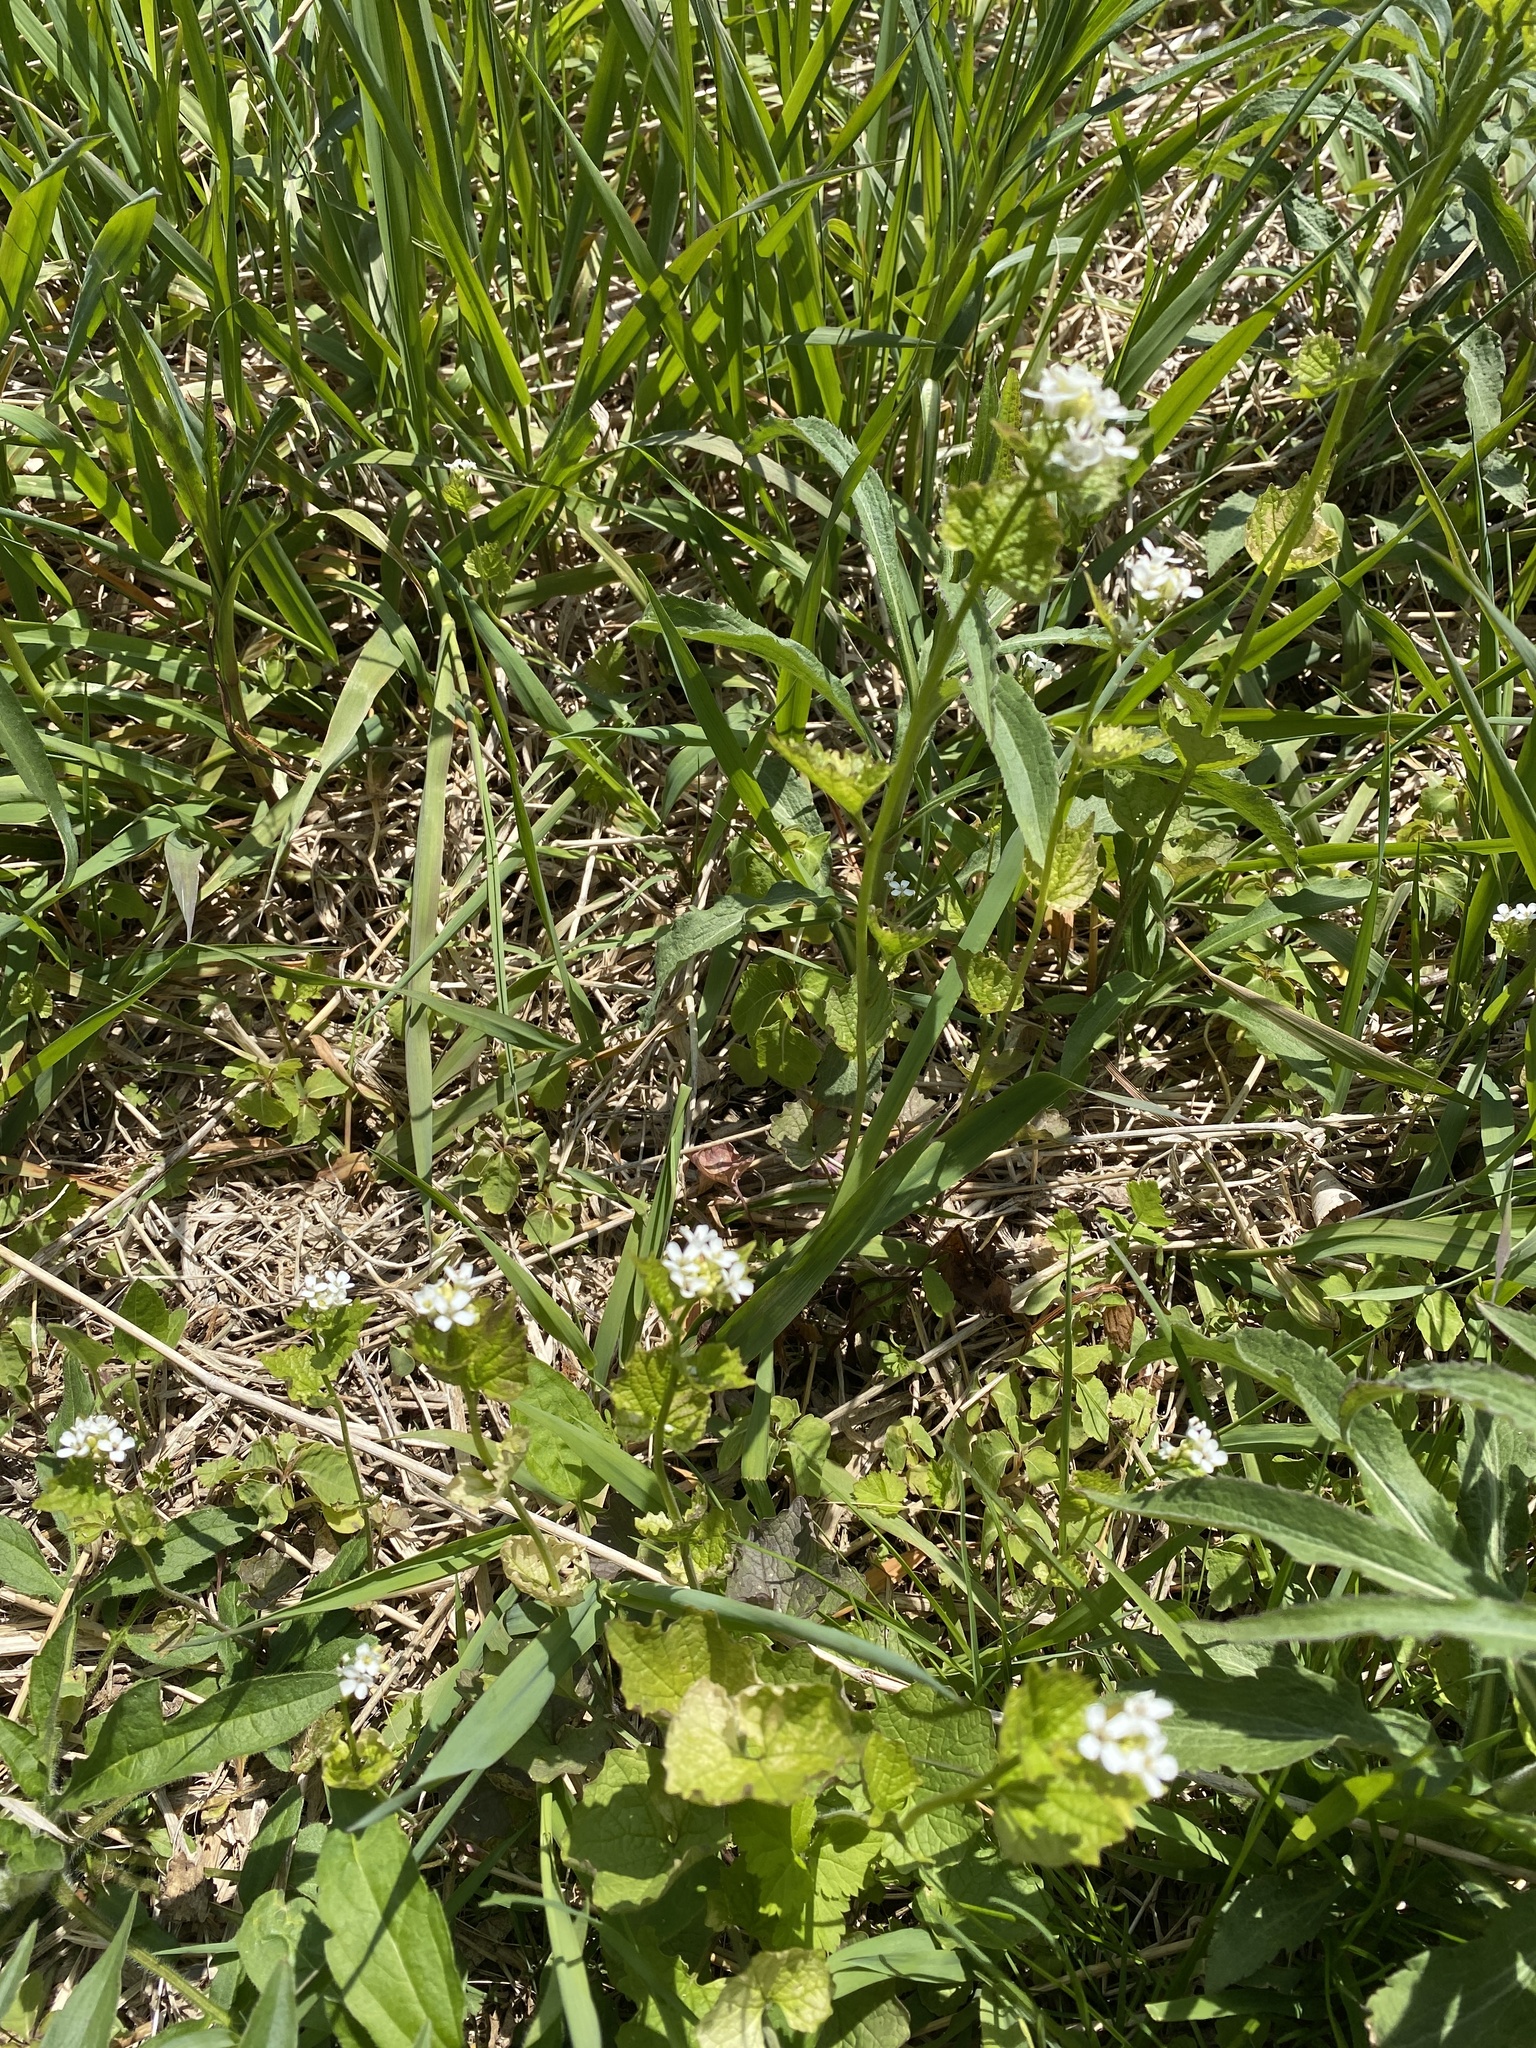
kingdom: Plantae
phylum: Tracheophyta
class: Magnoliopsida
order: Brassicales
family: Brassicaceae
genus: Alliaria
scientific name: Alliaria petiolata
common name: Garlic mustard
